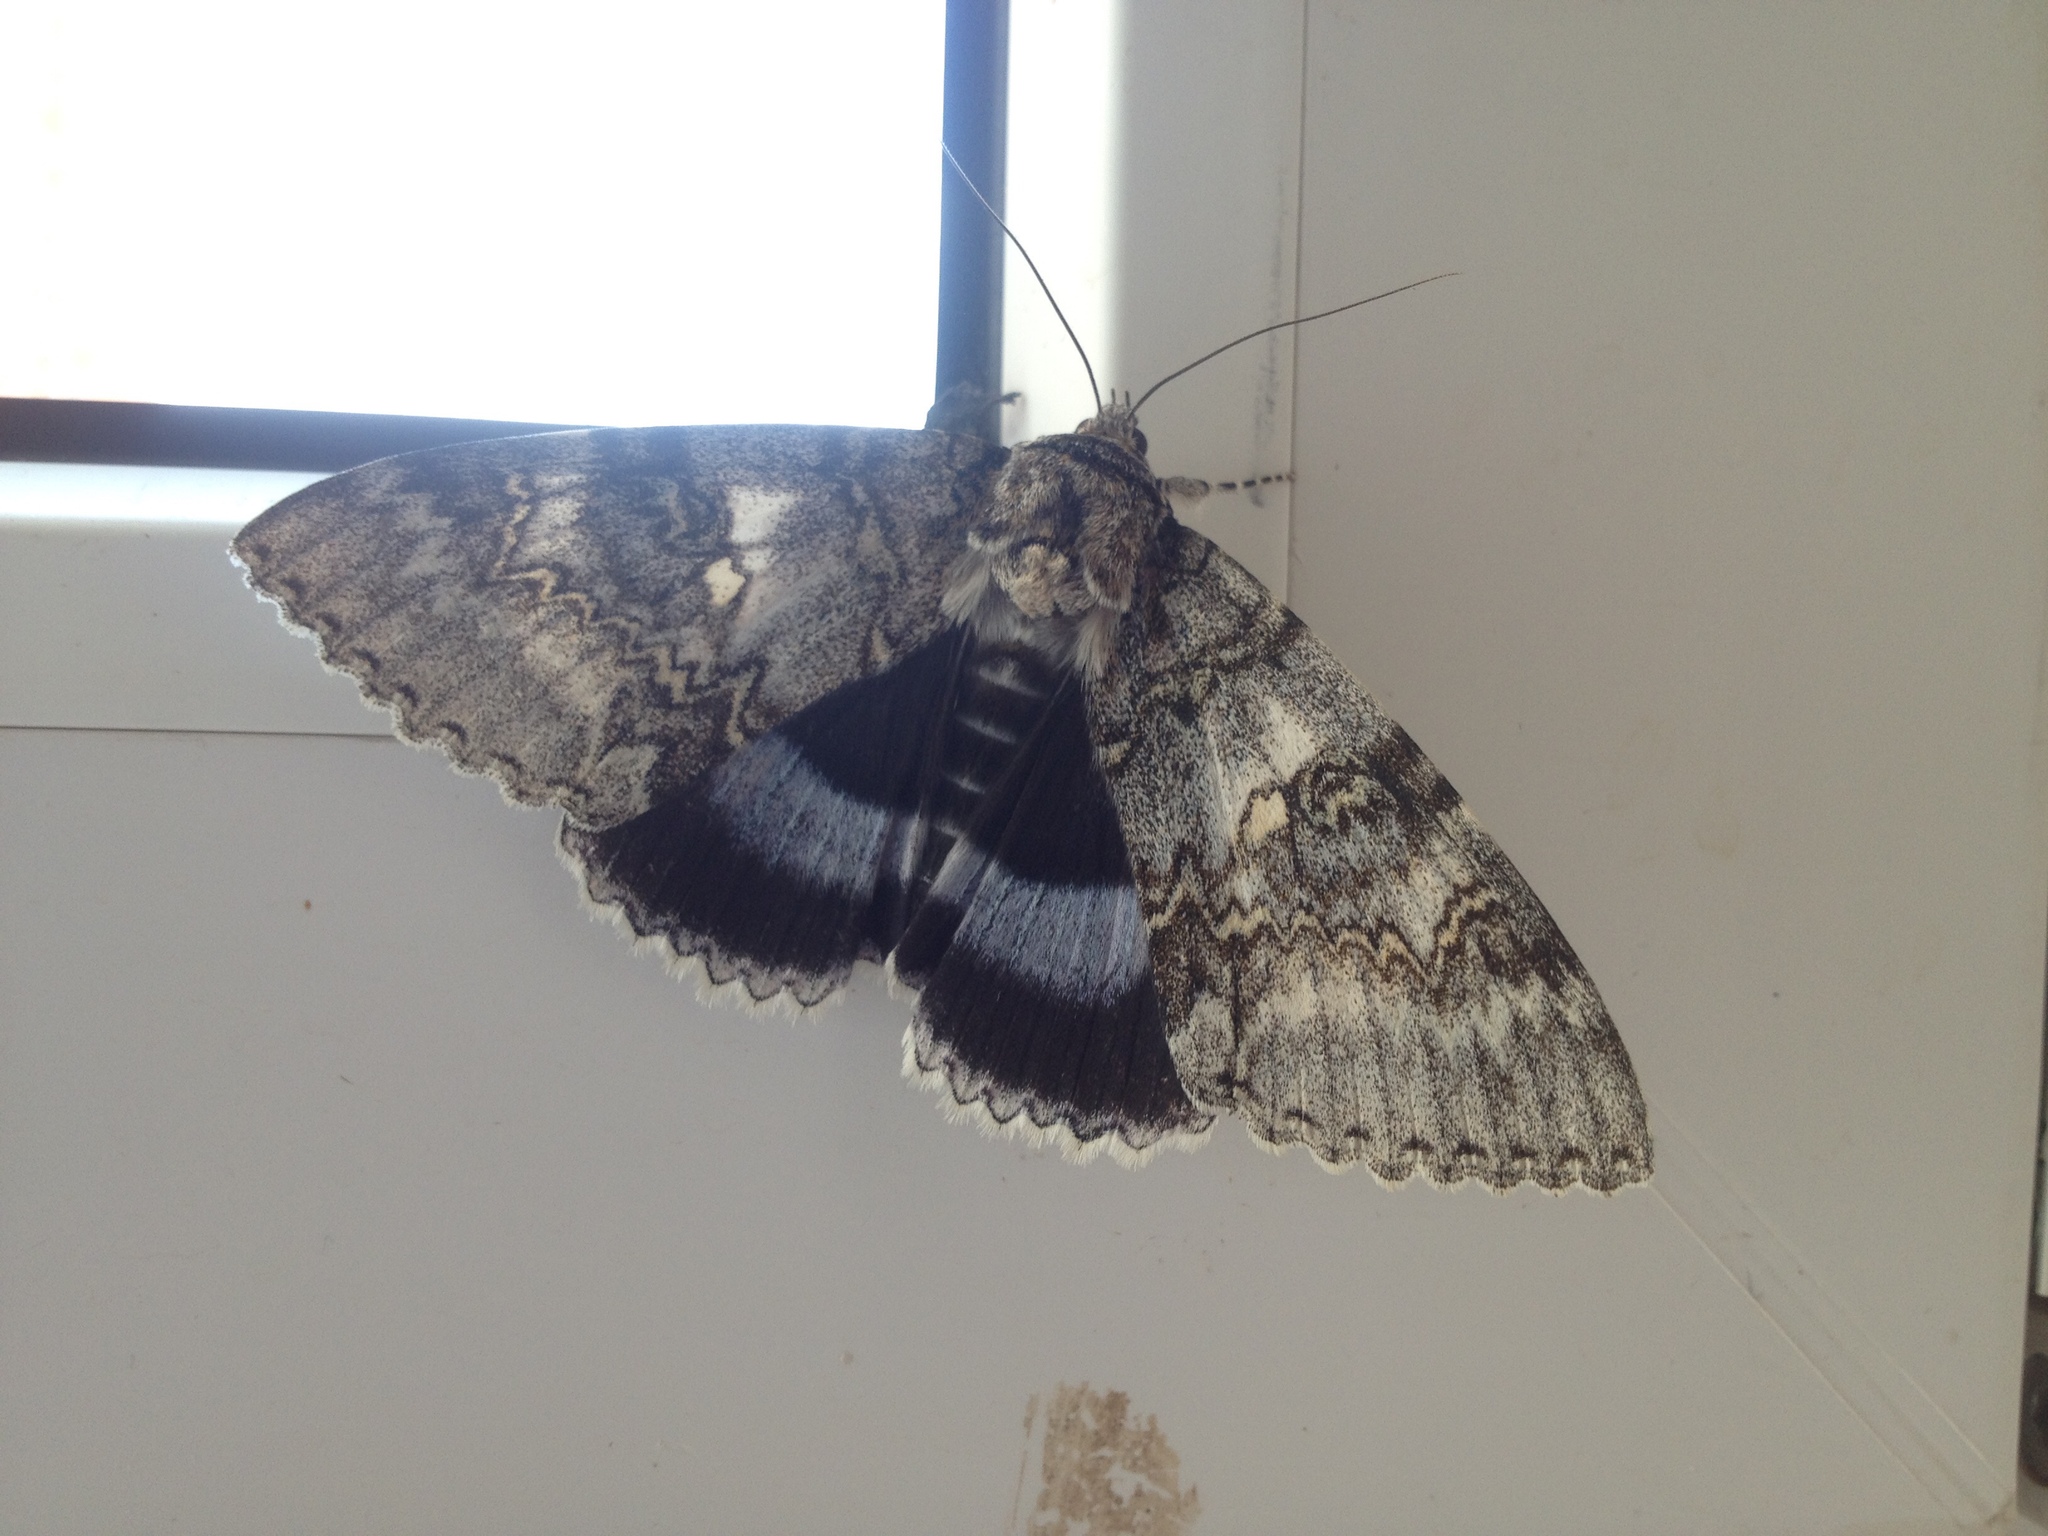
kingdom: Animalia
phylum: Arthropoda
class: Insecta
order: Lepidoptera
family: Erebidae
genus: Catocala
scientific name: Catocala fraxini
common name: Clifden nonpareil
